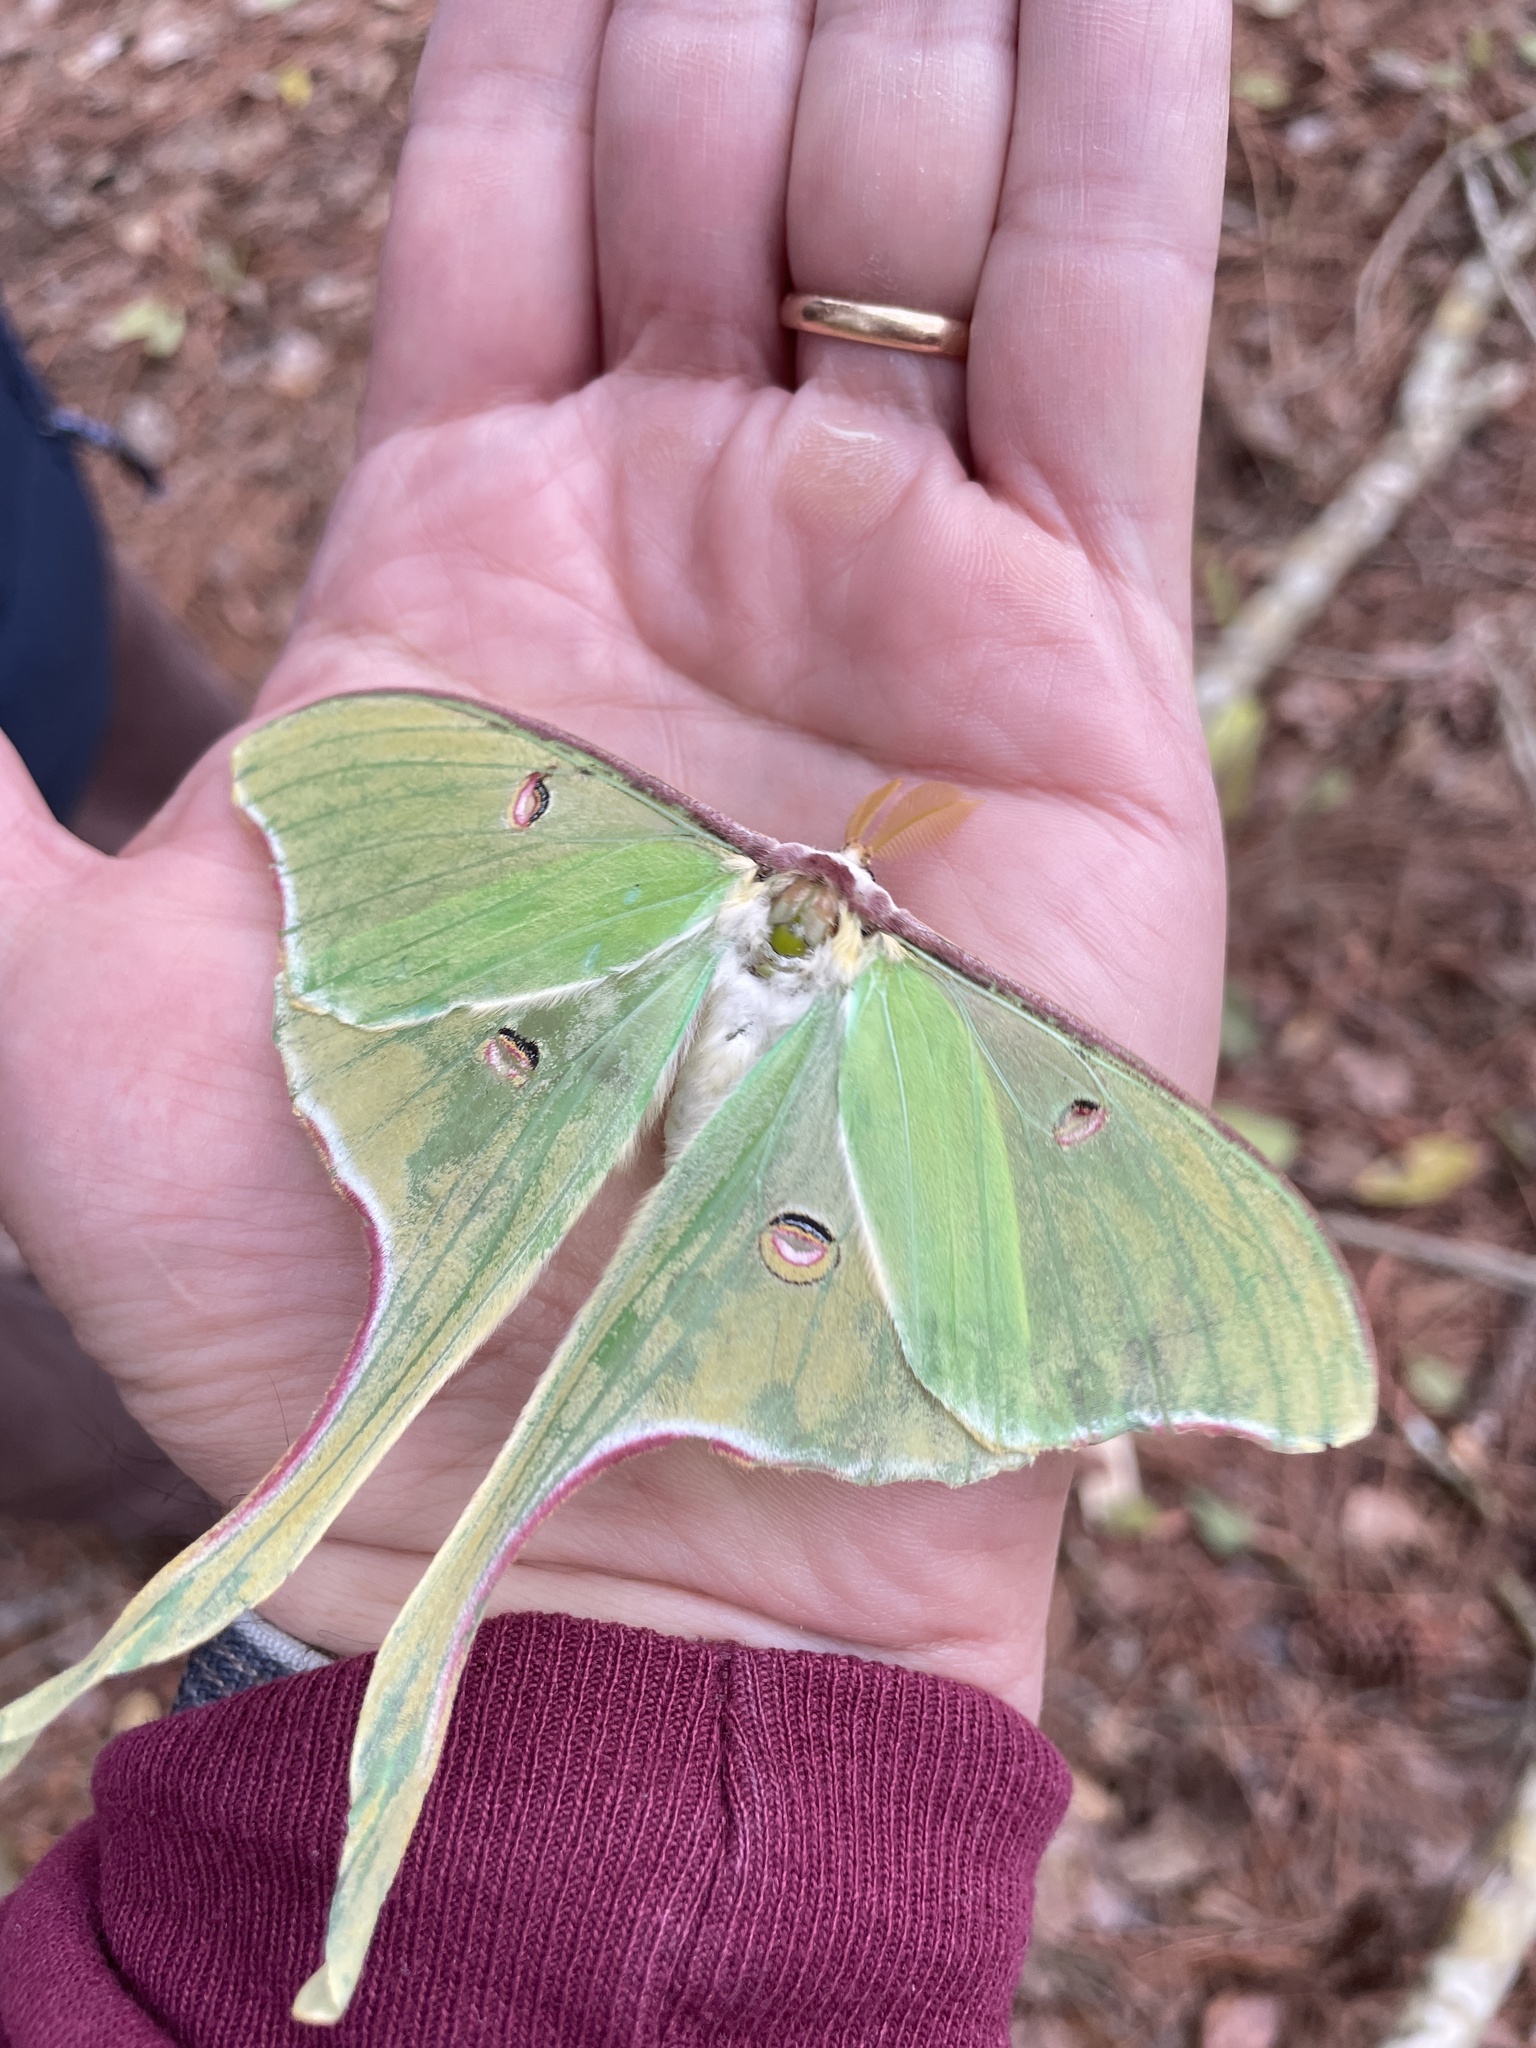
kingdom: Animalia
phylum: Arthropoda
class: Insecta
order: Lepidoptera
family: Saturniidae
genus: Actias
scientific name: Actias luna
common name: Luna moth
